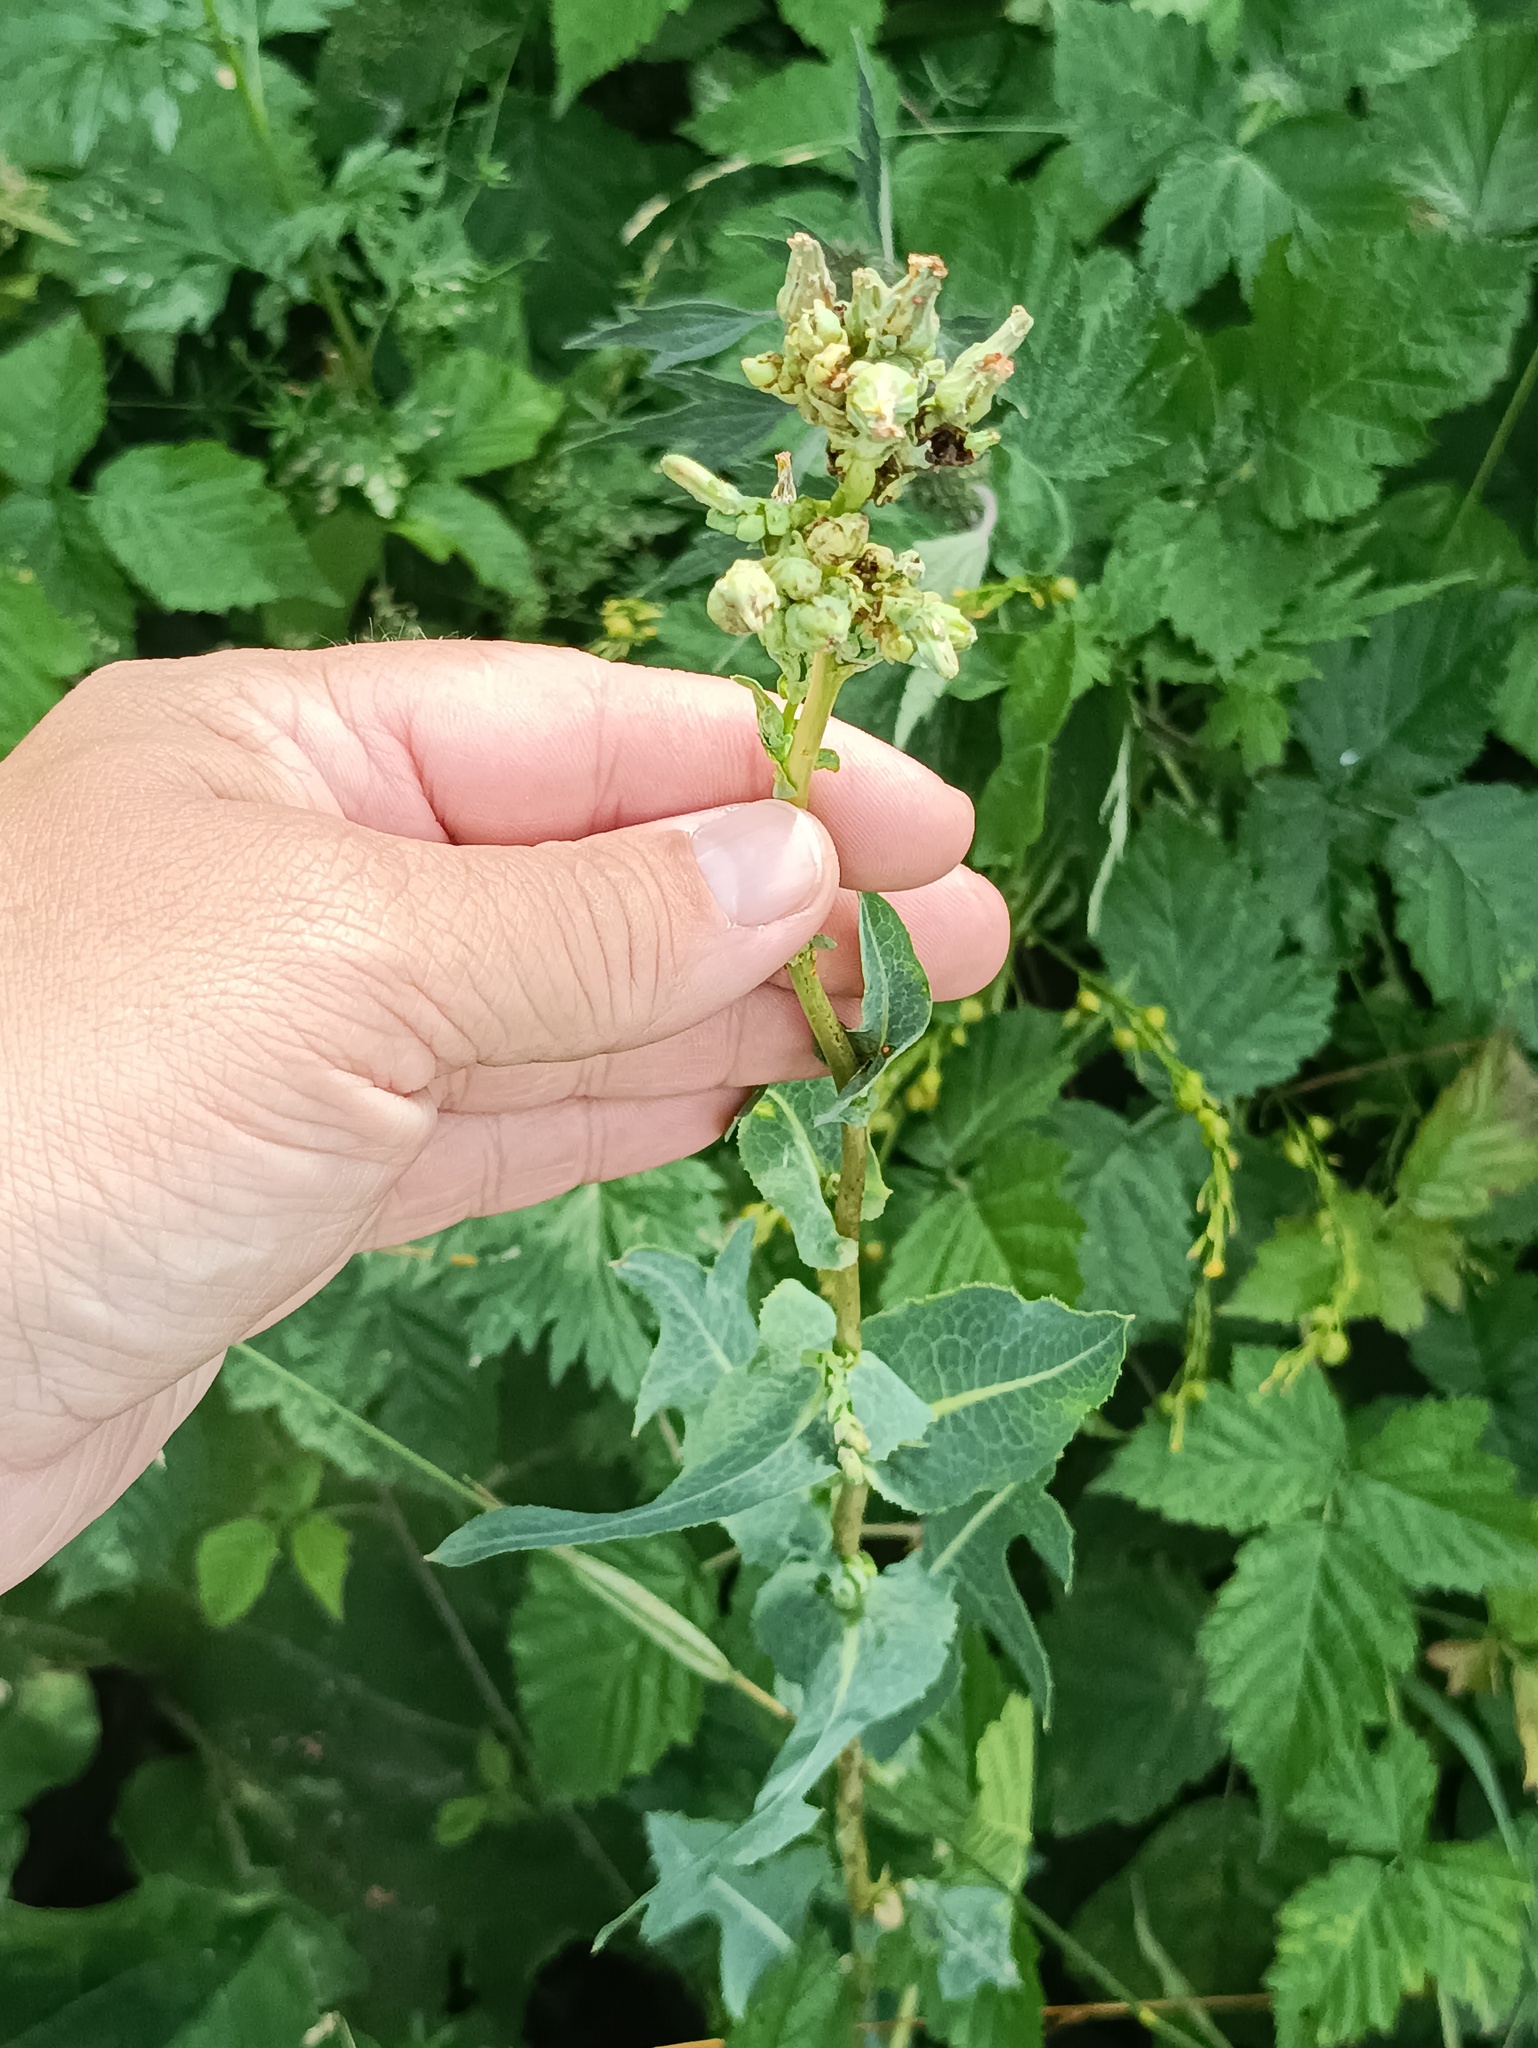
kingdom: Plantae
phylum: Tracheophyta
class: Magnoliopsida
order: Asterales
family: Asteraceae
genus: Lactuca
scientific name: Lactuca serriola
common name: Prickly lettuce
